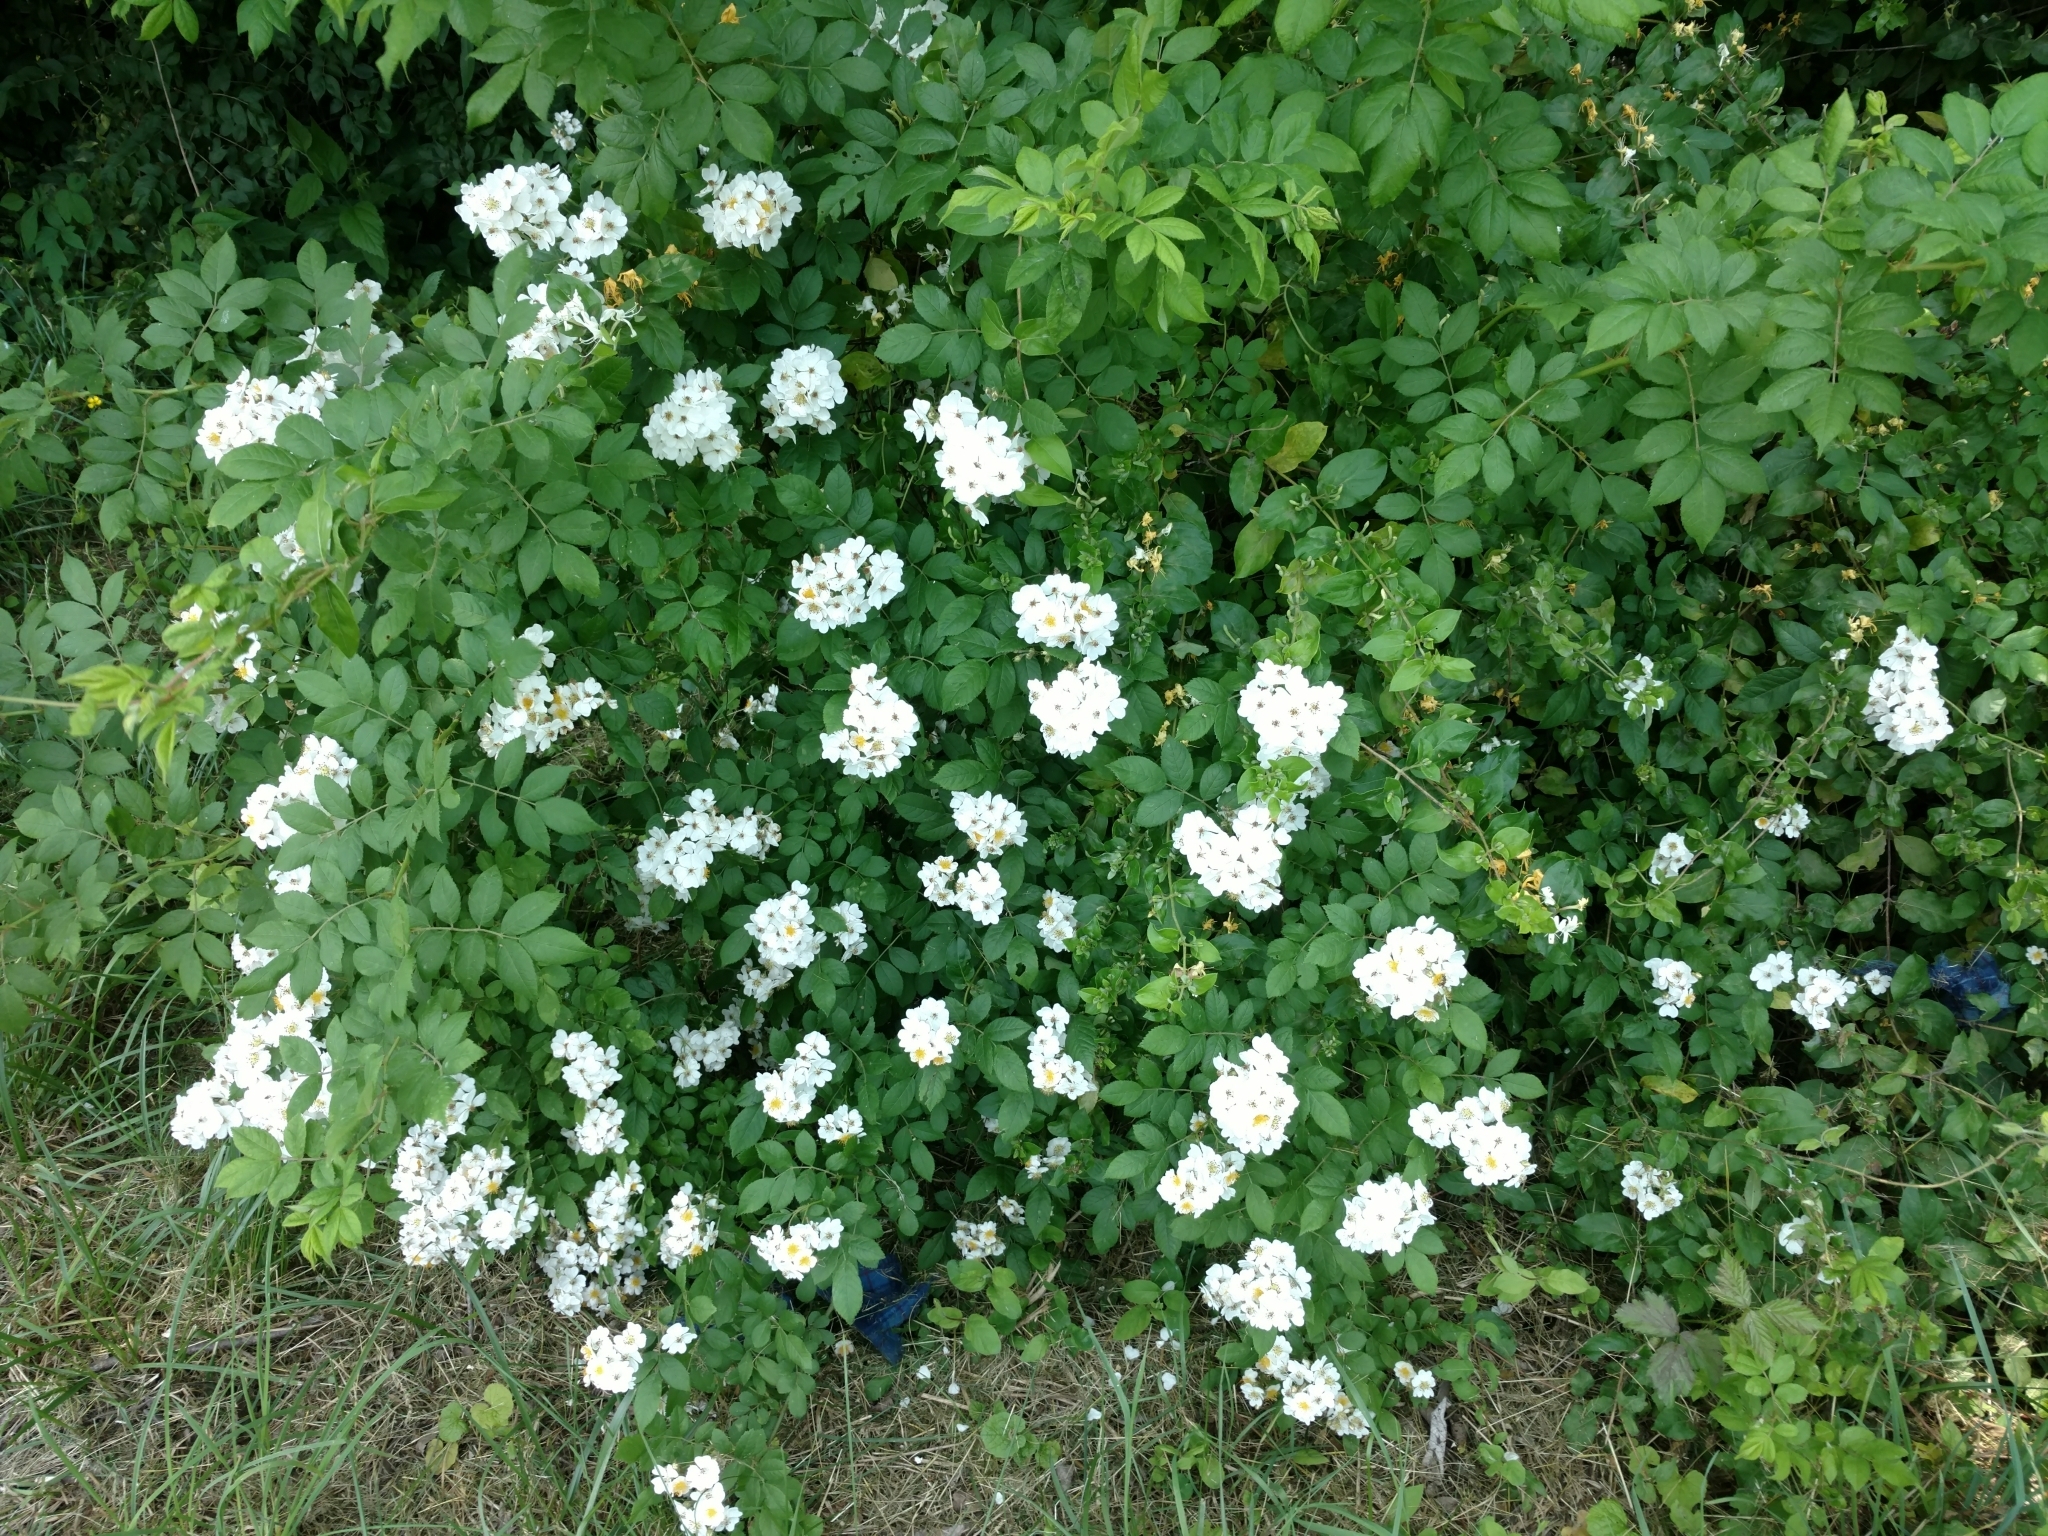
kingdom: Plantae
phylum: Tracheophyta
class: Magnoliopsida
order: Rosales
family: Rosaceae
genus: Rosa
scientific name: Rosa multiflora
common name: Multiflora rose
